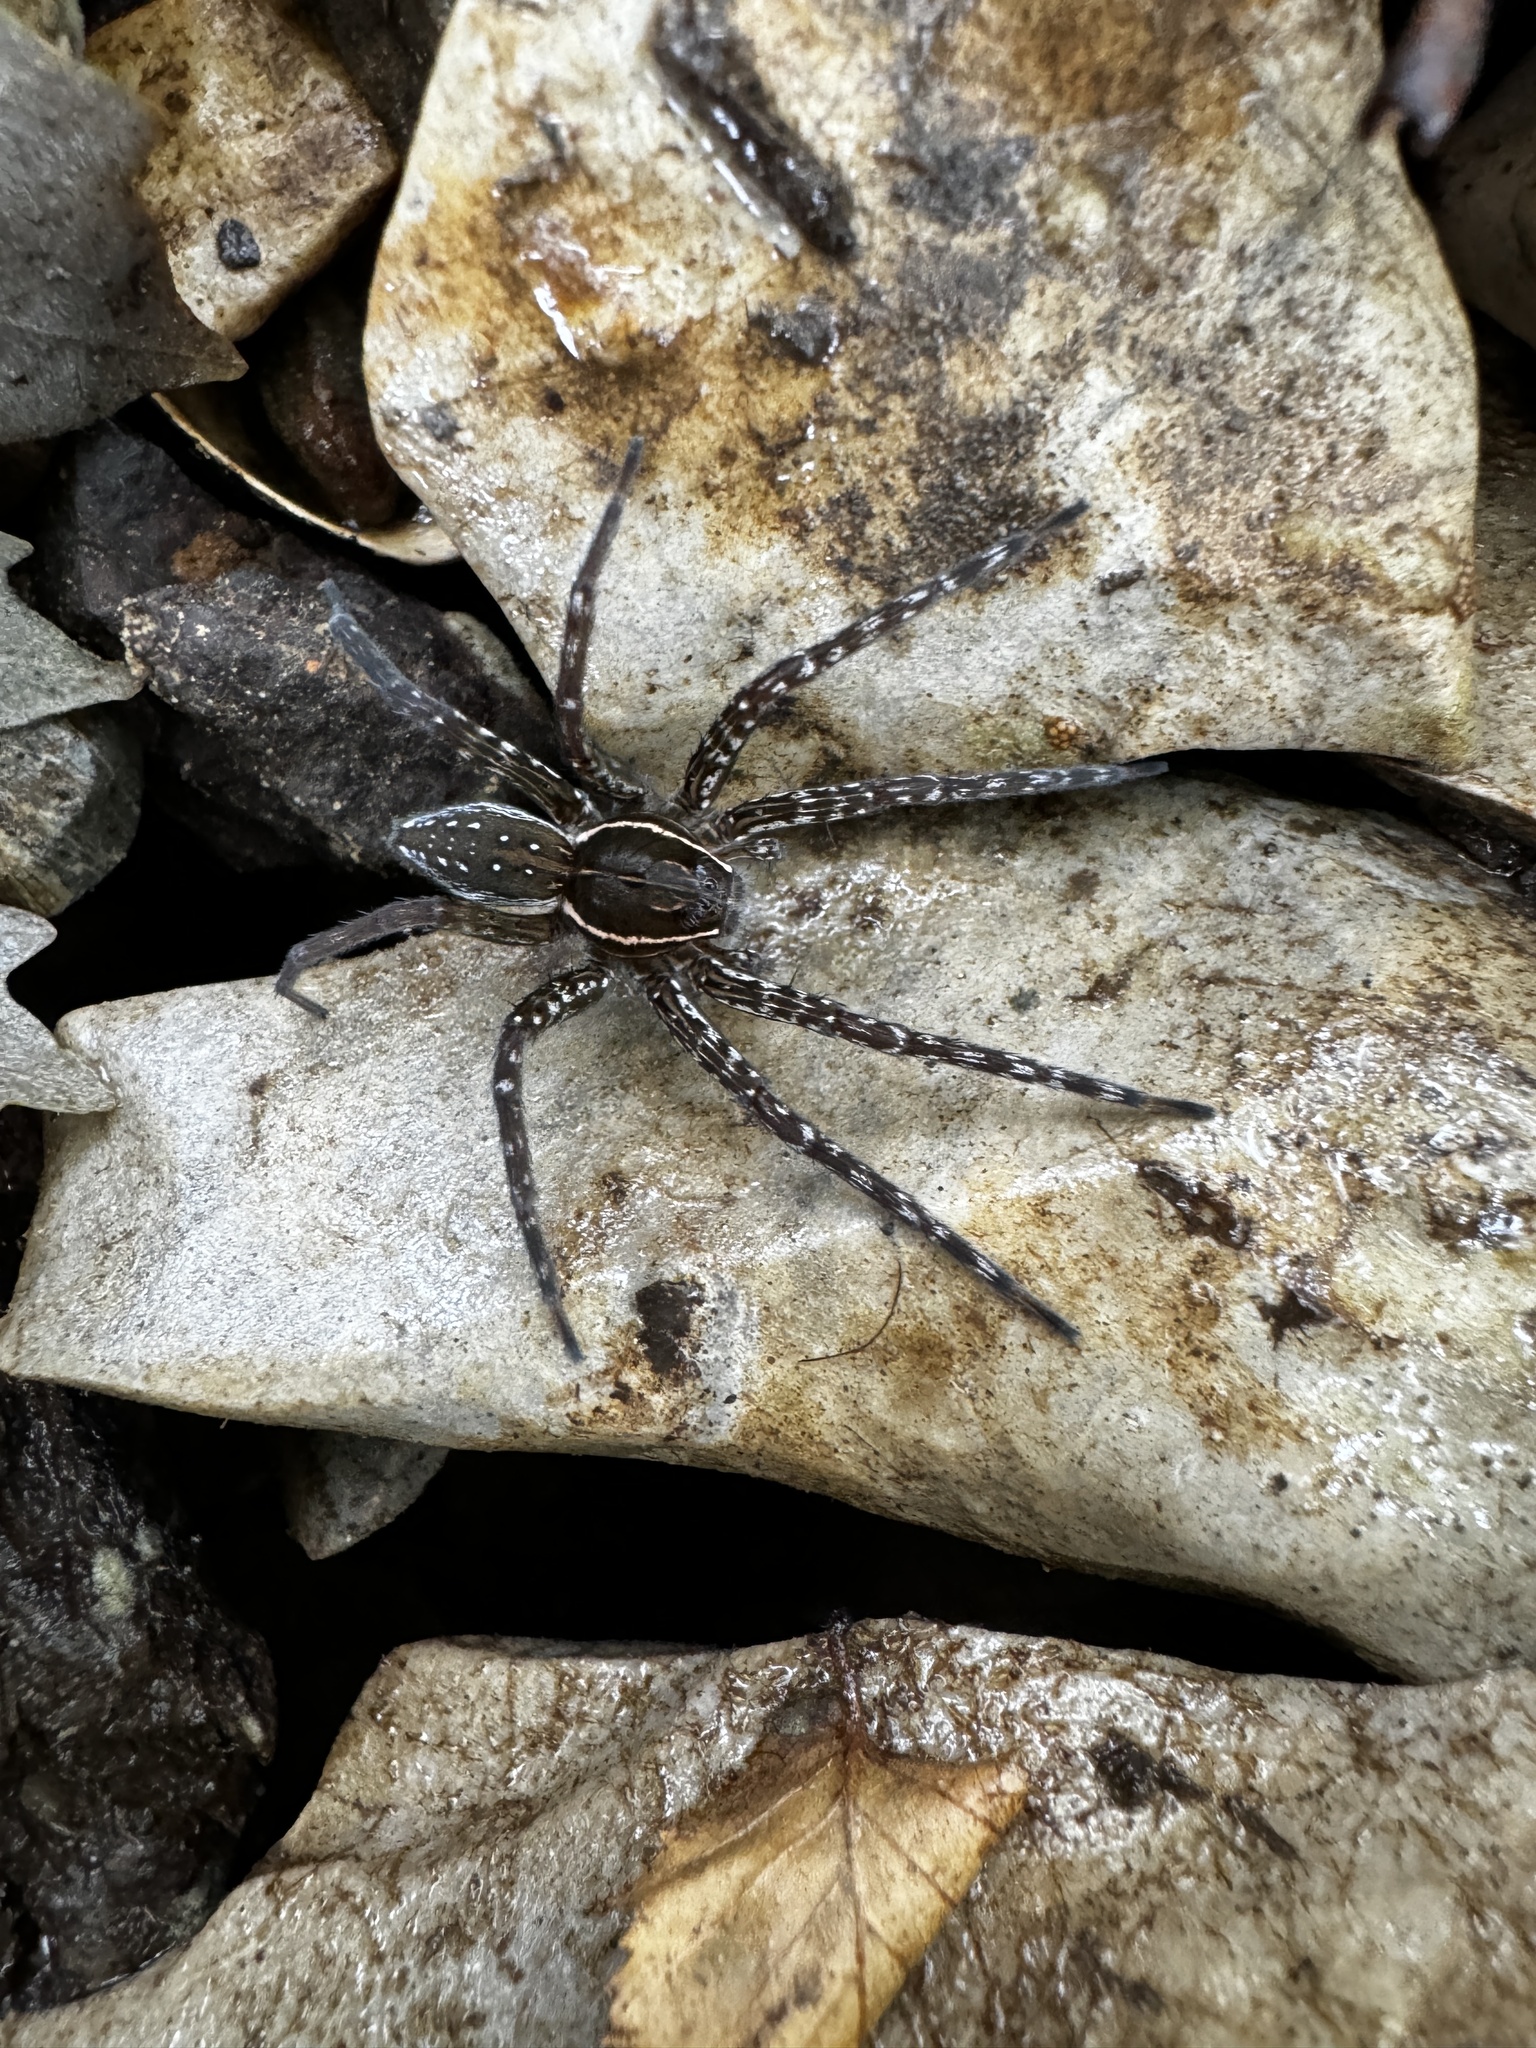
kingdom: Animalia
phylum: Arthropoda
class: Arachnida
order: Araneae
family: Pisauridae
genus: Dolomedes
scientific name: Dolomedes triton
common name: Six-spotted fishing spider
